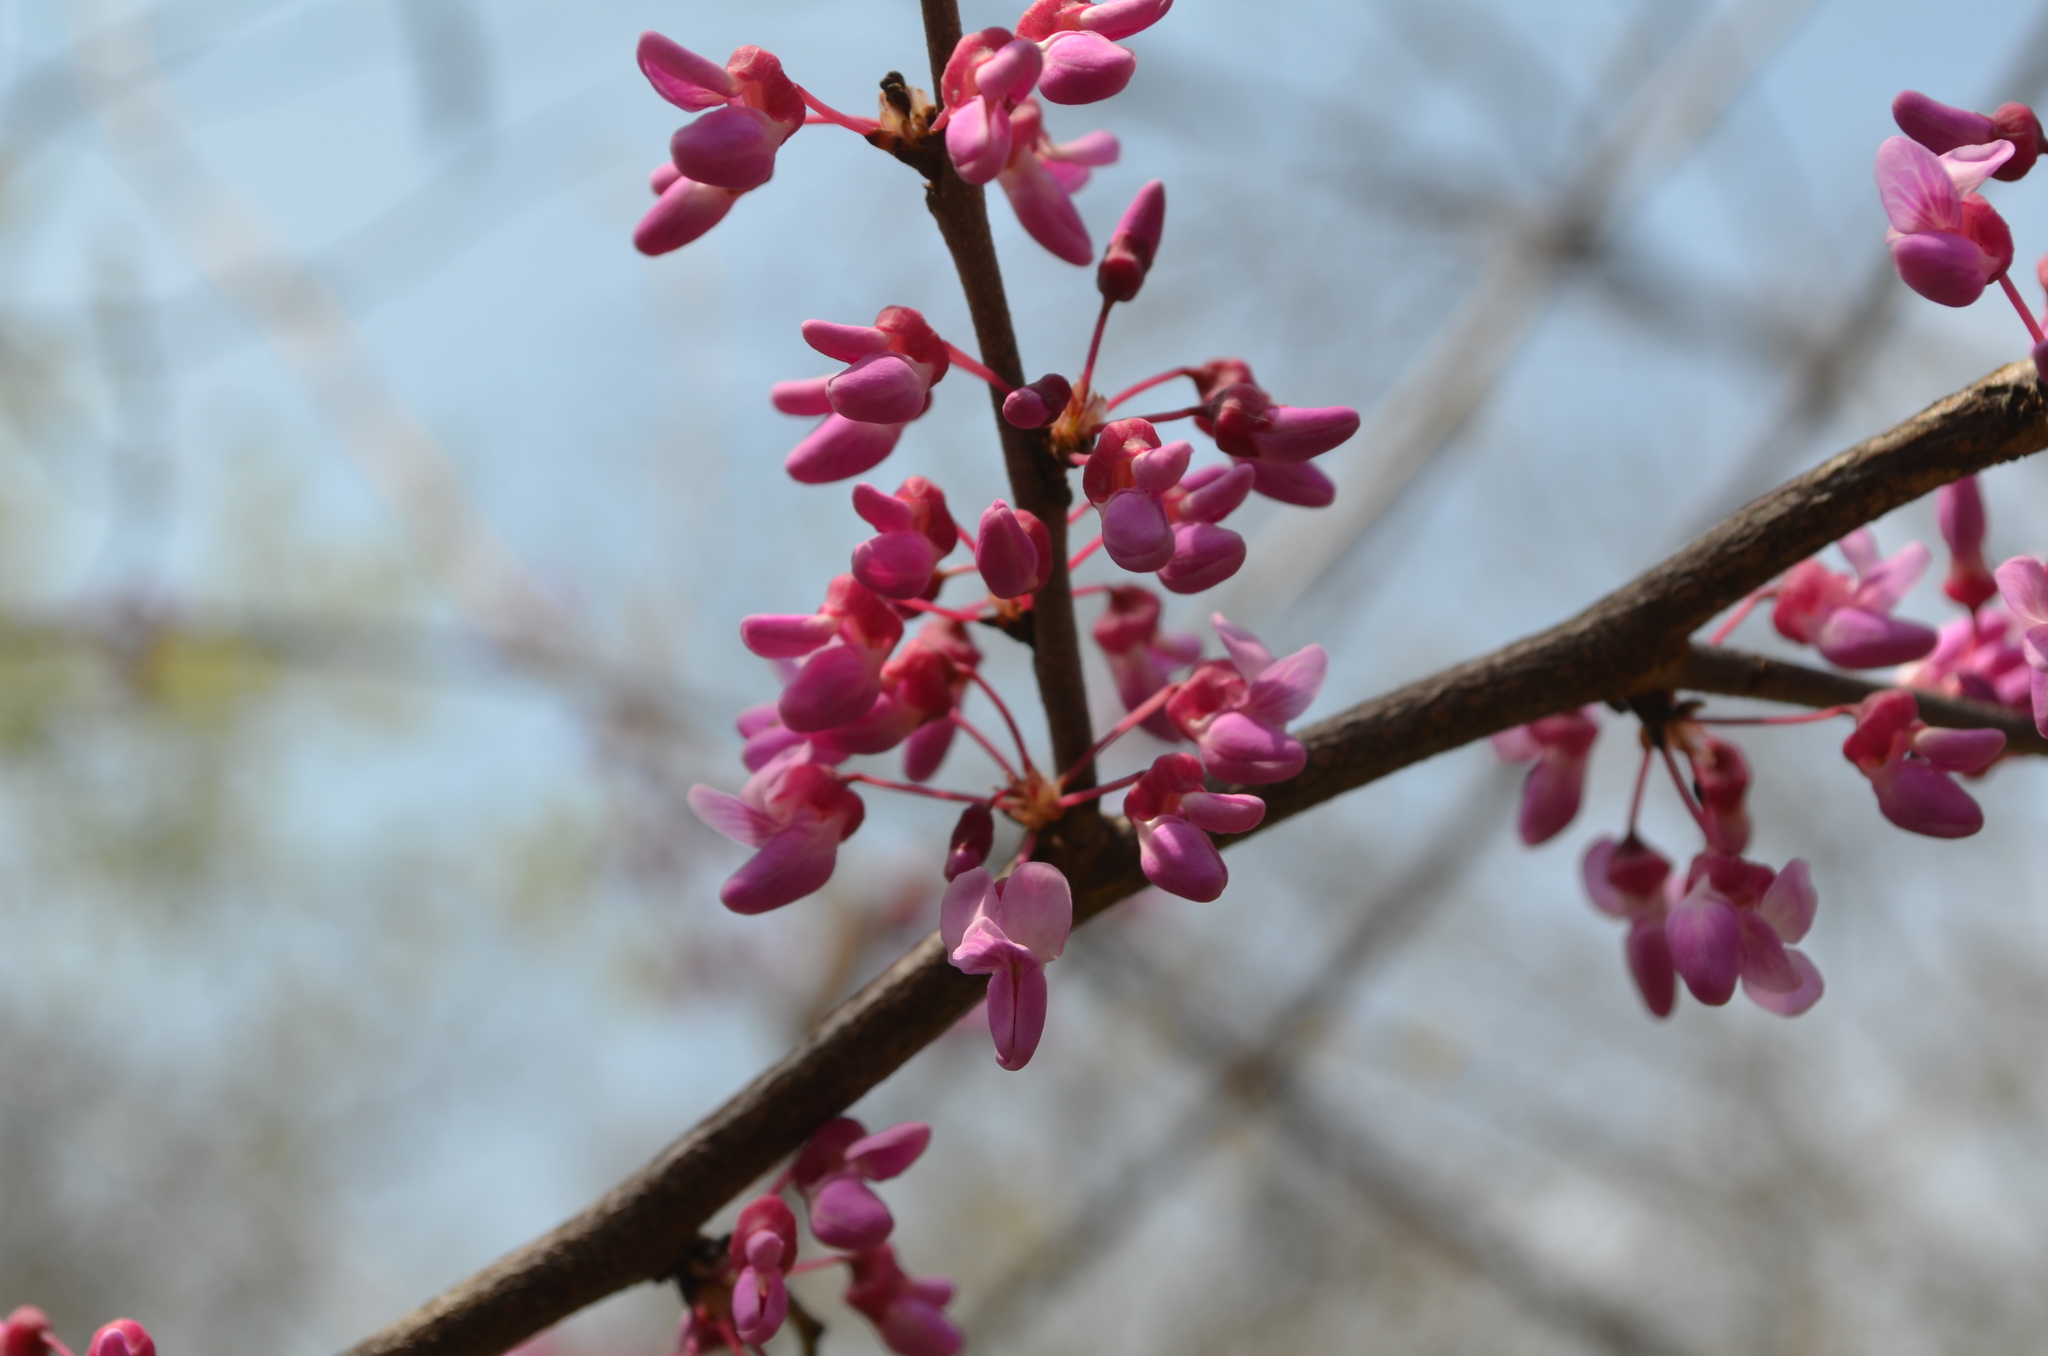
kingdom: Plantae
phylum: Tracheophyta
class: Magnoliopsida
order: Fabales
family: Fabaceae
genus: Cercis
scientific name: Cercis canadensis
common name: Eastern redbud
